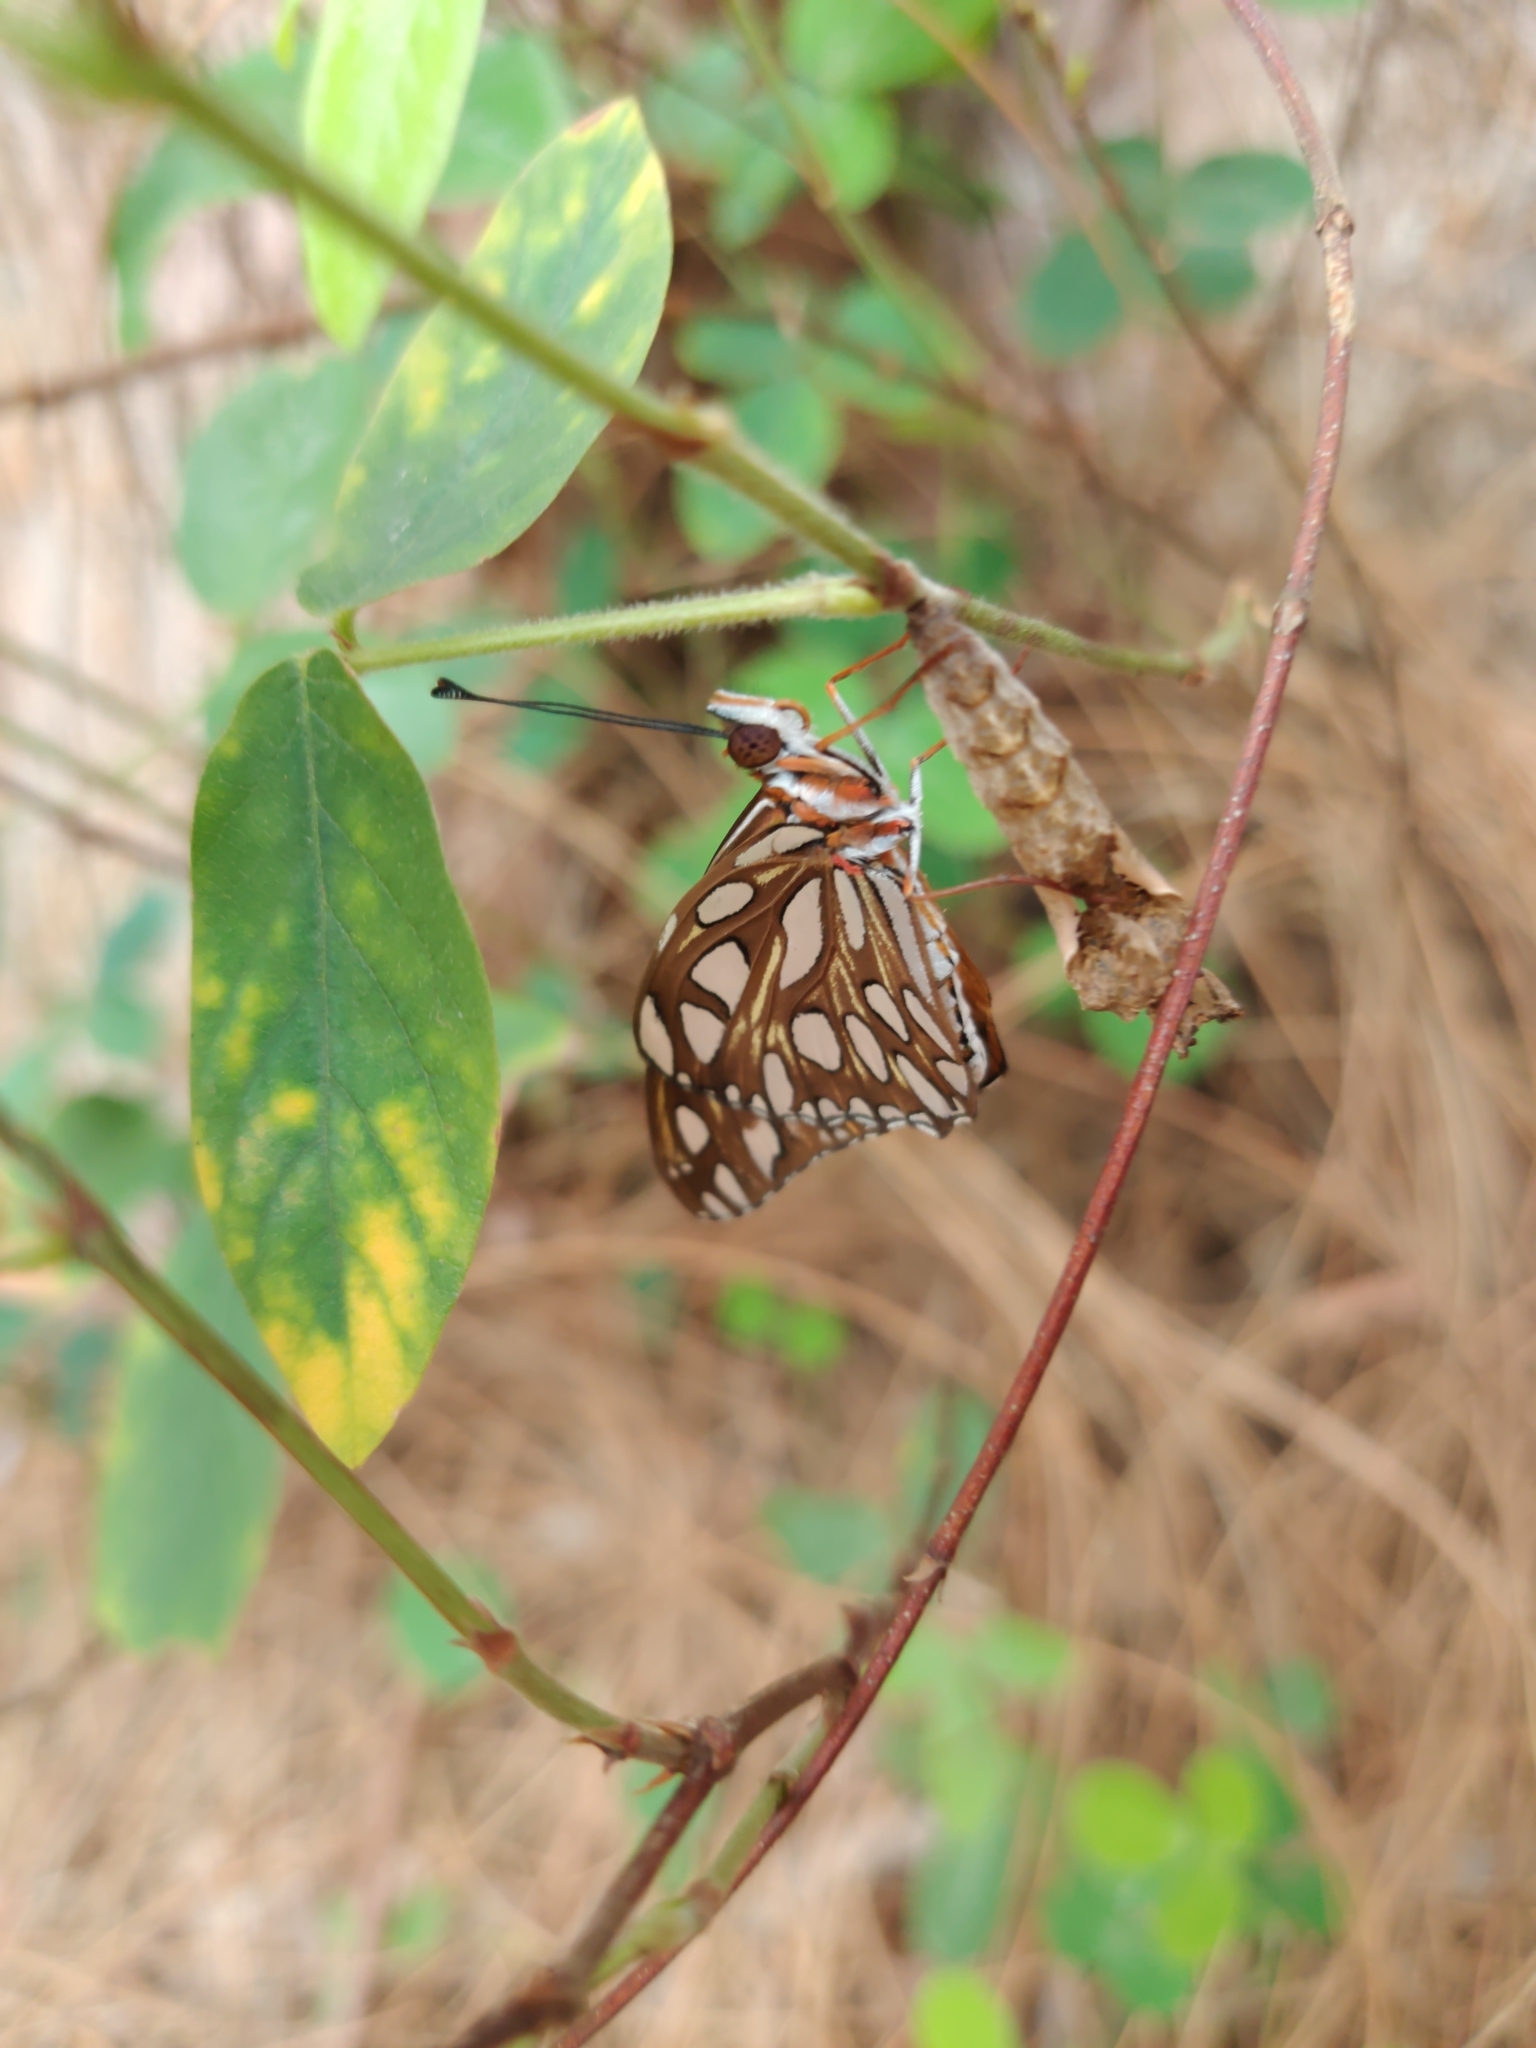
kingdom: Animalia
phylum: Arthropoda
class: Insecta
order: Lepidoptera
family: Nymphalidae
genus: Dione
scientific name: Dione vanillae
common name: Gulf fritillary
